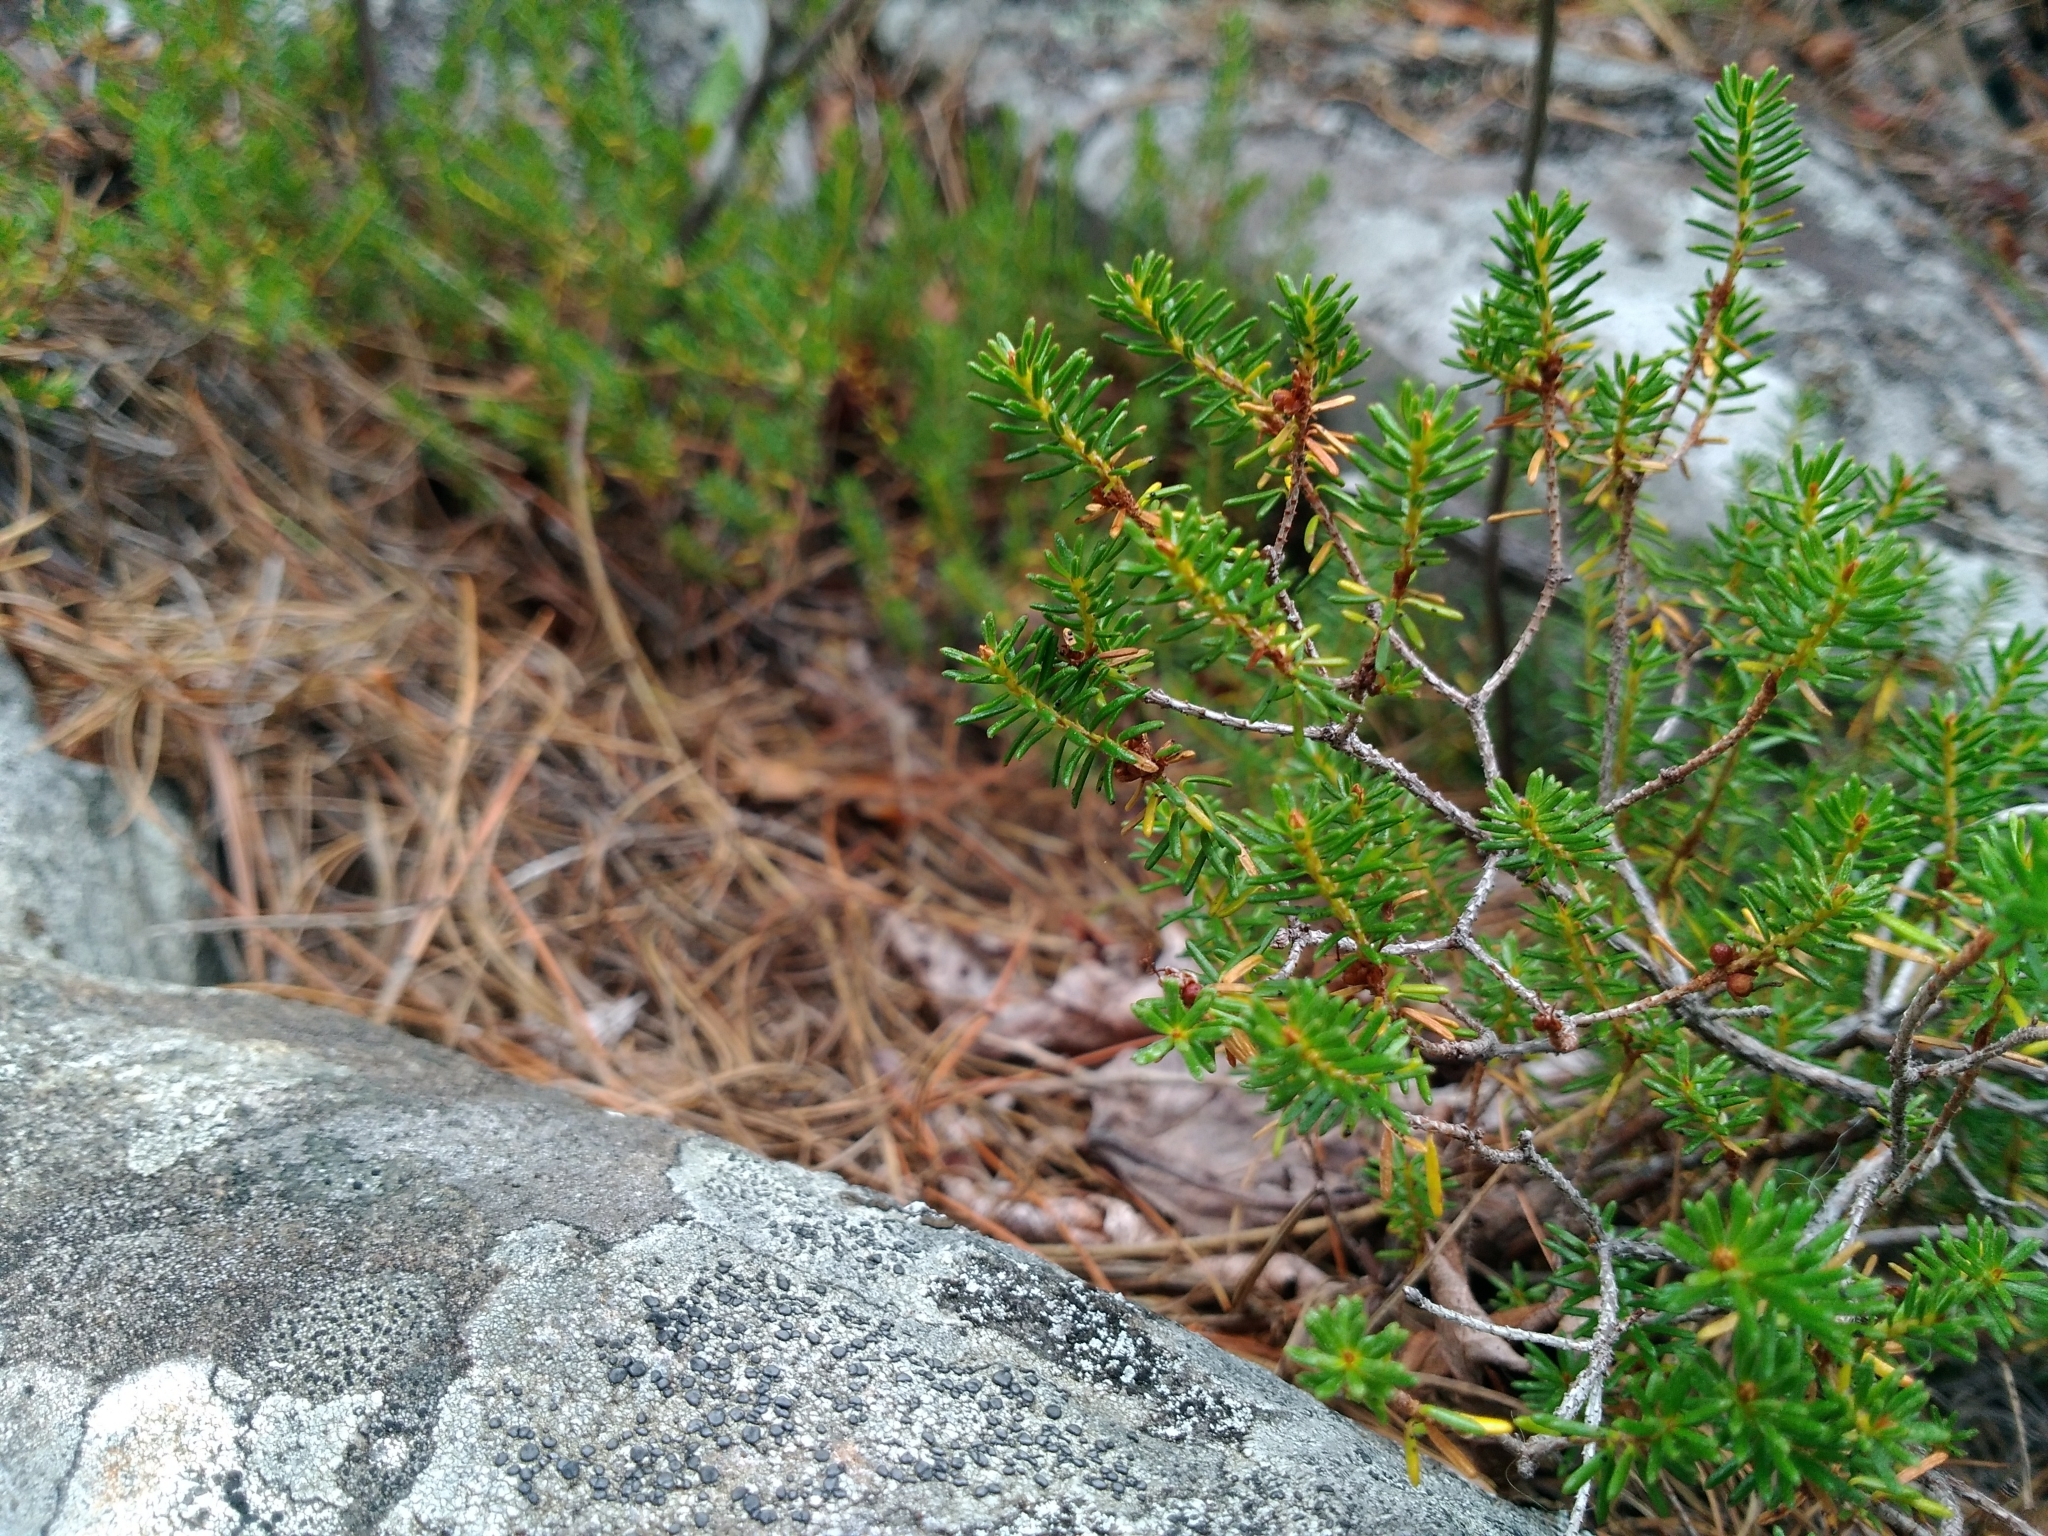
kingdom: Plantae
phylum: Tracheophyta
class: Magnoliopsida
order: Ericales
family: Ericaceae
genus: Corema
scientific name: Corema conradii
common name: Broom-crowberry
